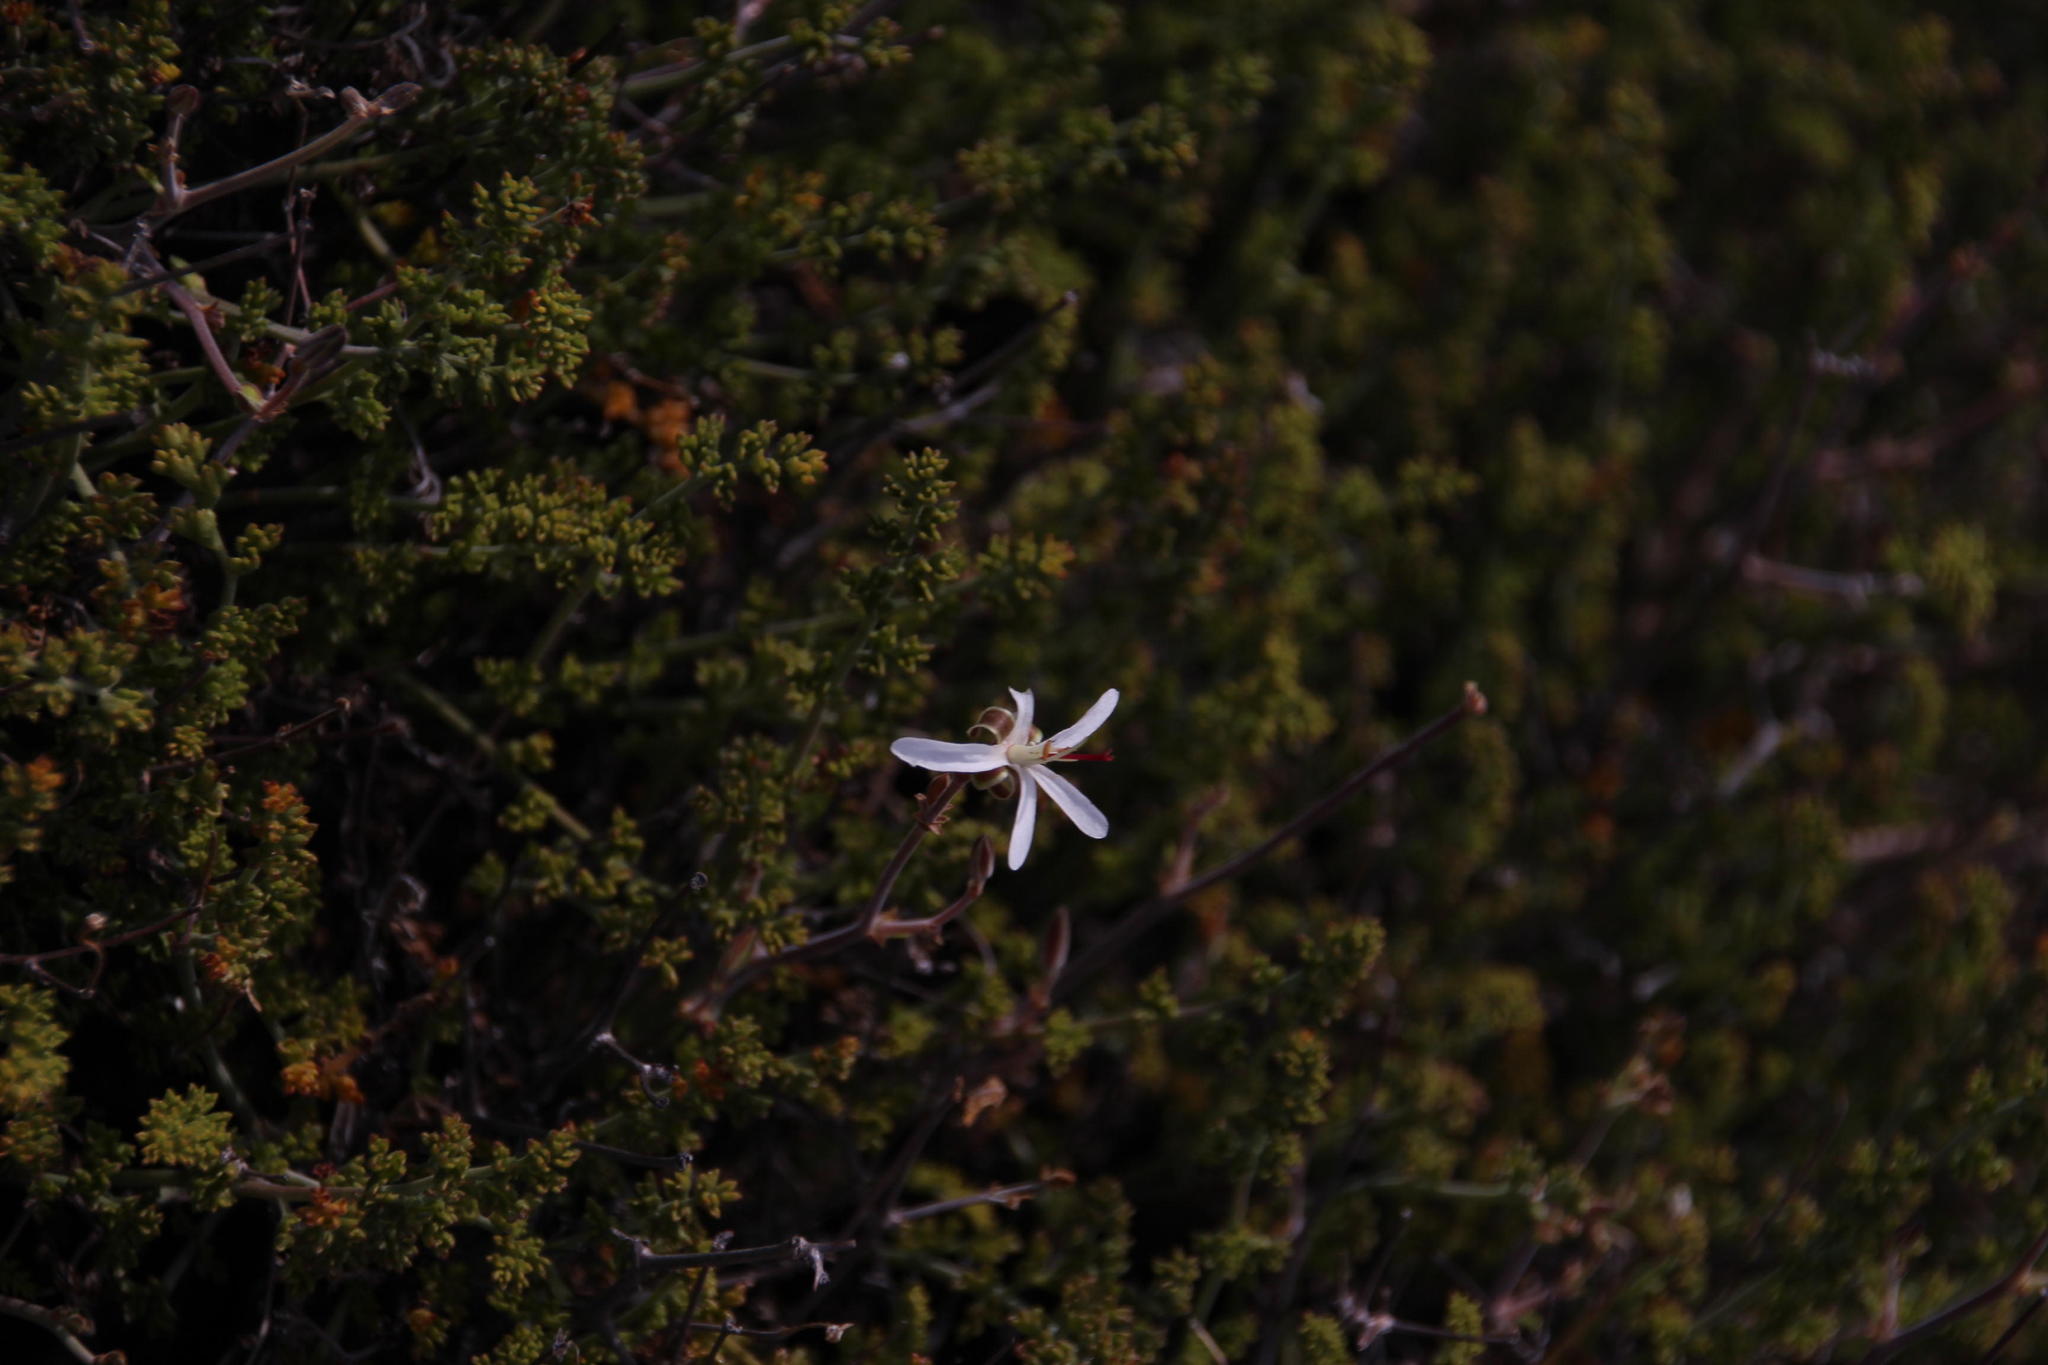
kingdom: Plantae
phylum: Tracheophyta
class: Magnoliopsida
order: Geraniales
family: Geraniaceae
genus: Pelargonium
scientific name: Pelargonium dasyphyllum
